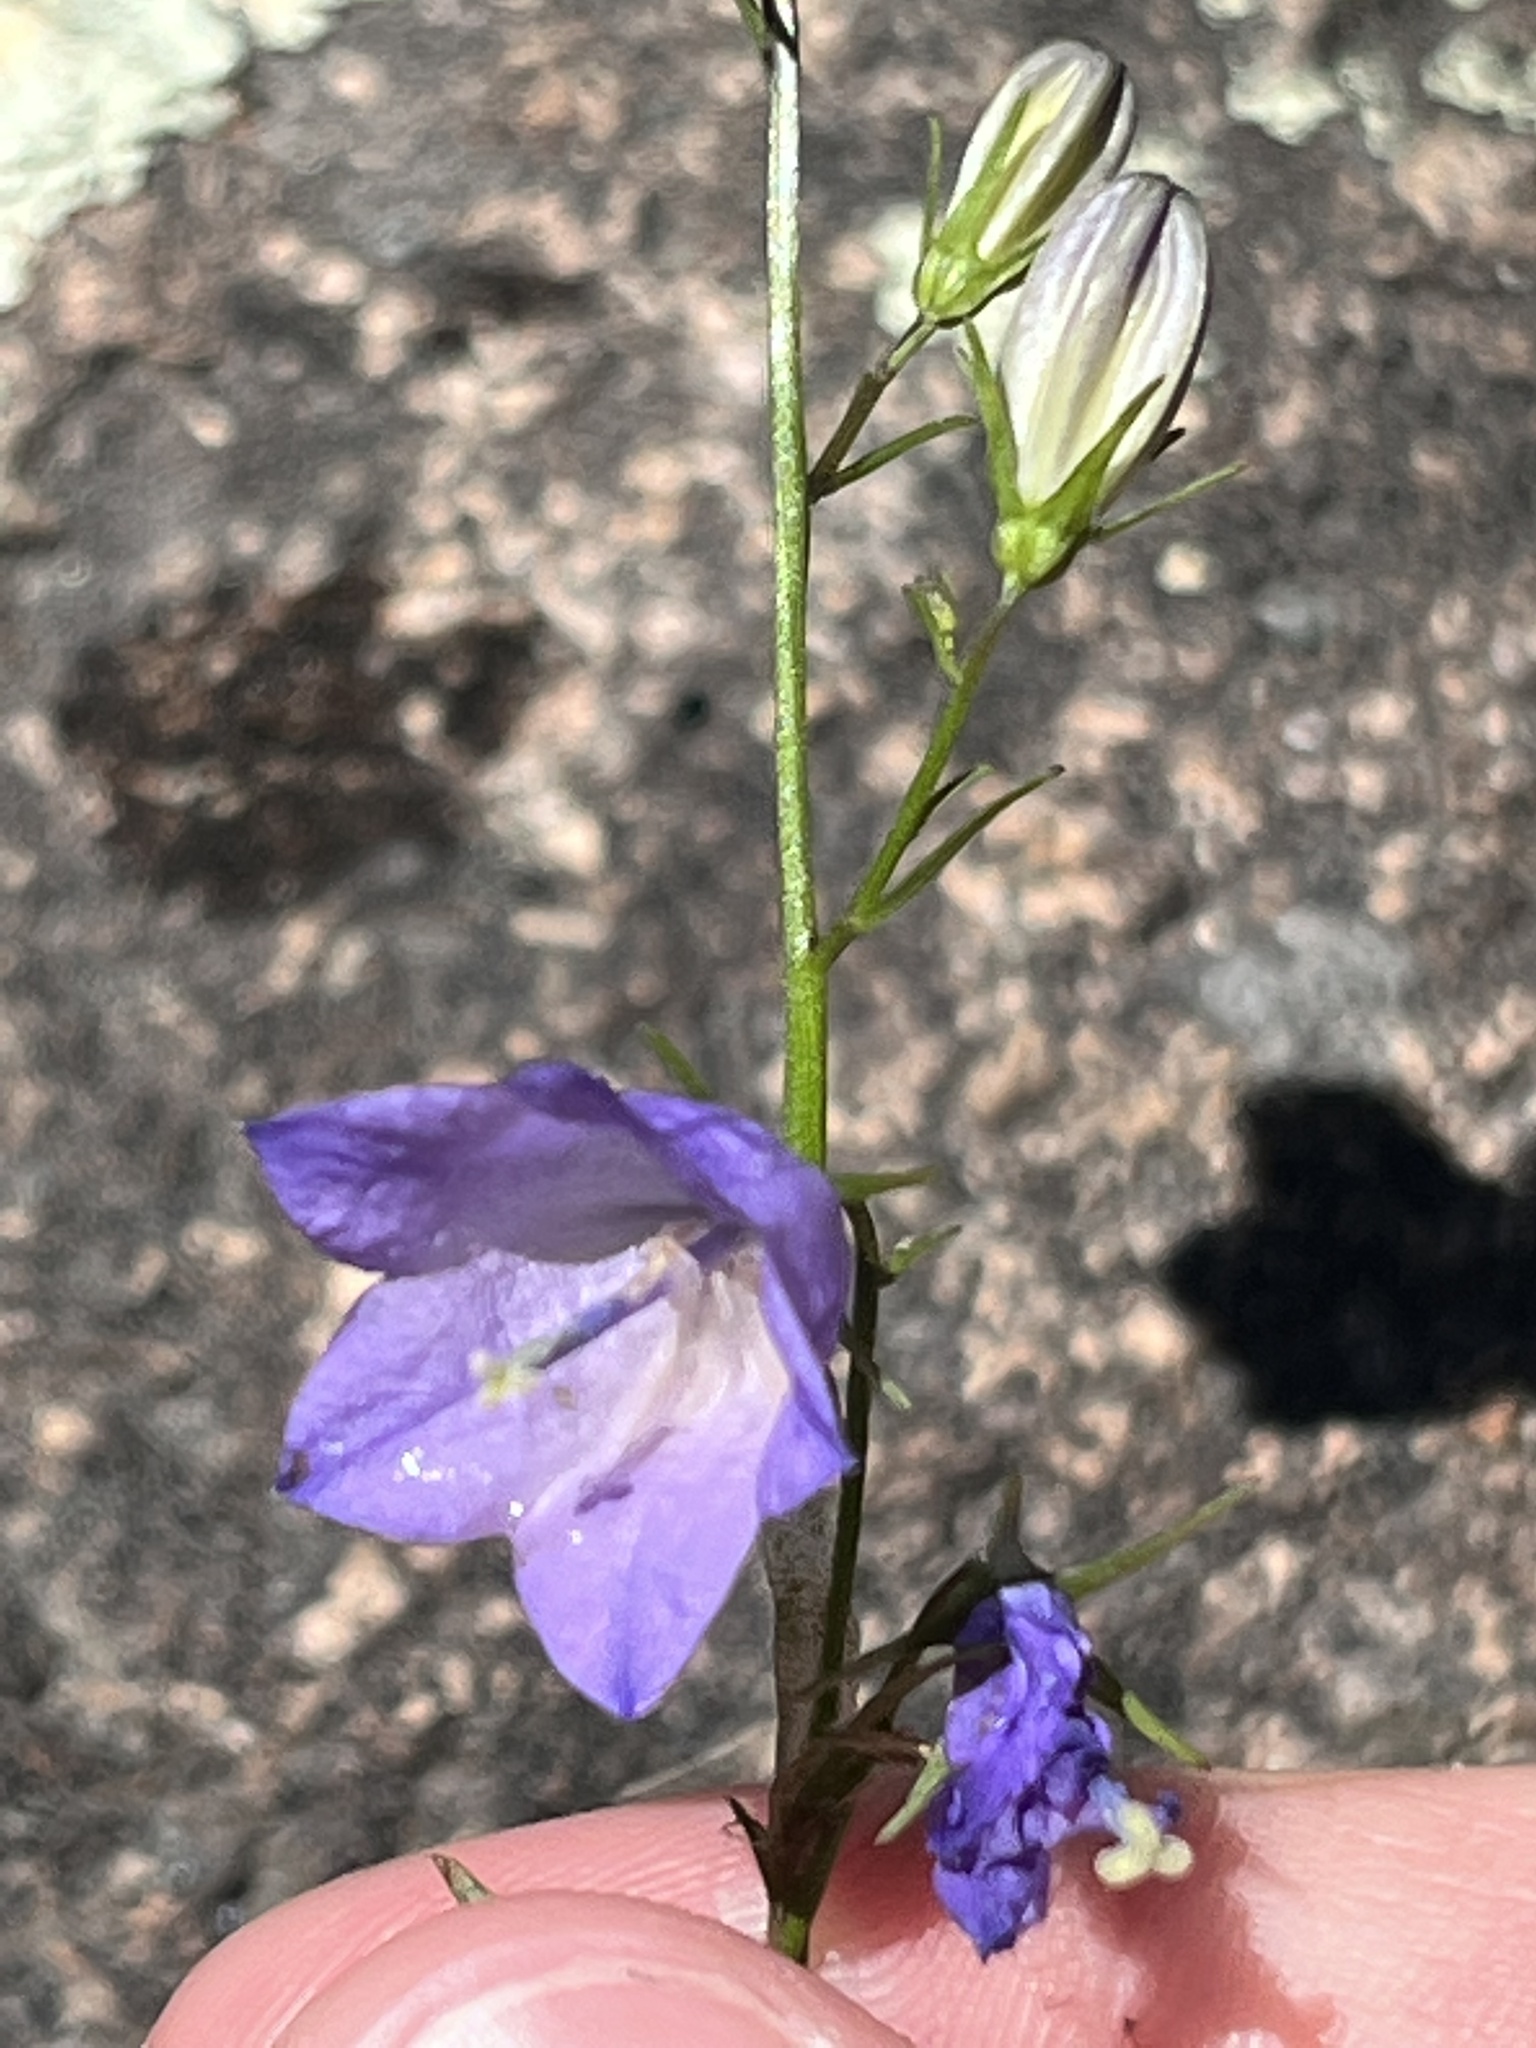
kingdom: Plantae
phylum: Tracheophyta
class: Magnoliopsida
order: Asterales
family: Campanulaceae
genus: Campanula
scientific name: Campanula intercedens
